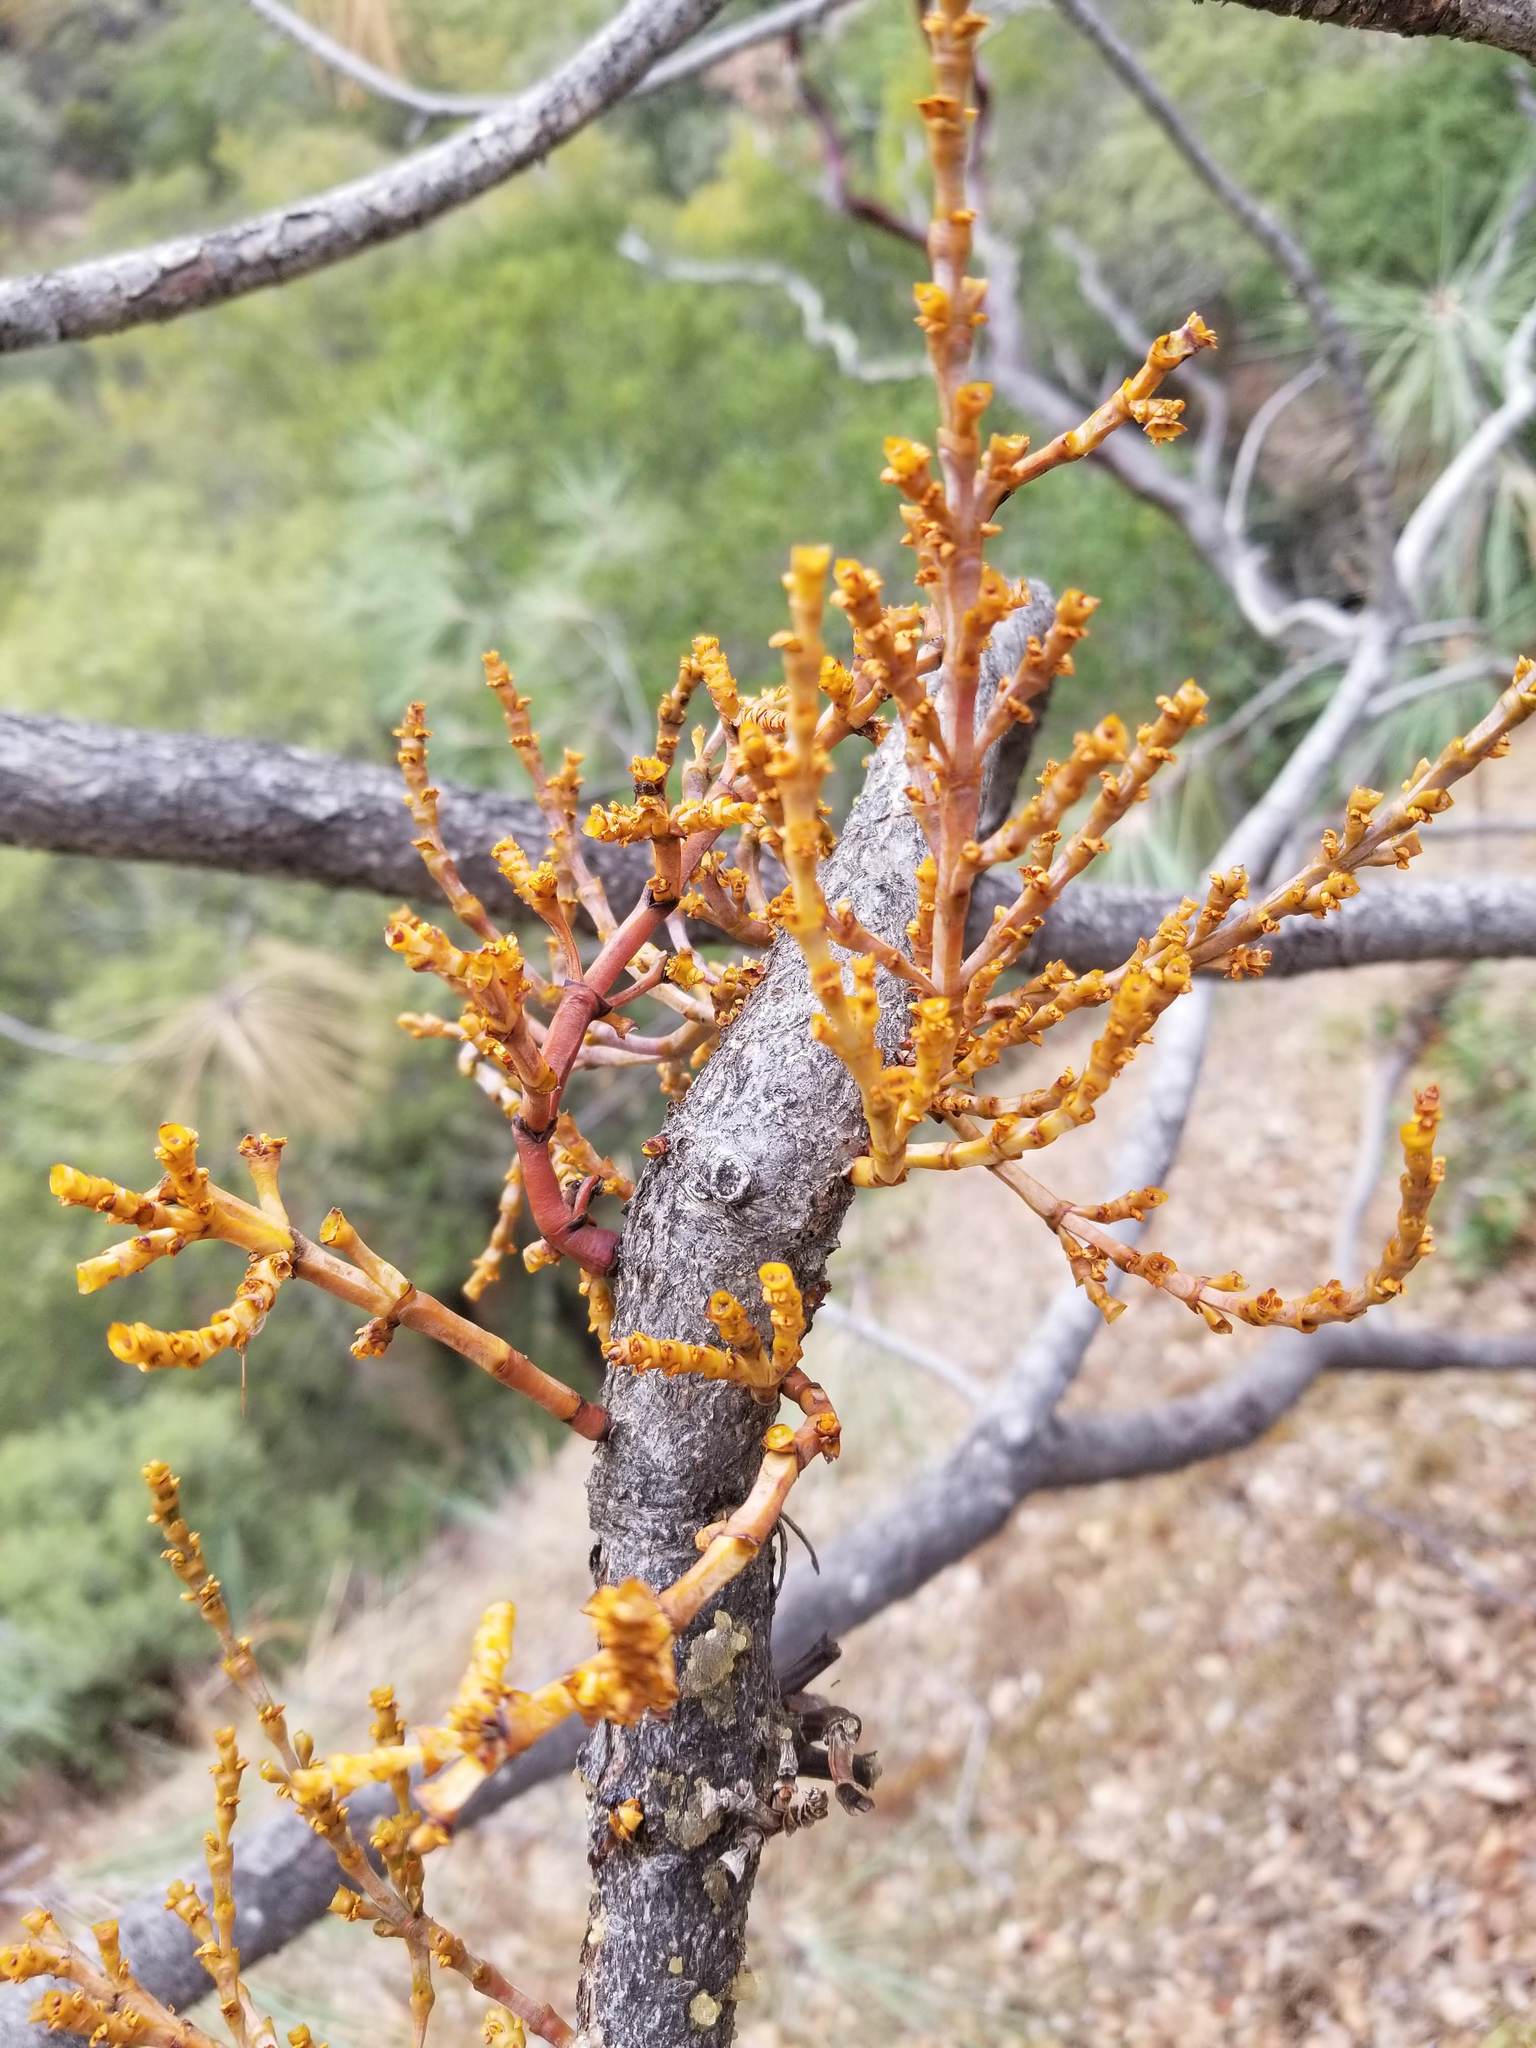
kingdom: Plantae
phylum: Tracheophyta
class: Magnoliopsida
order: Santalales
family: Viscaceae
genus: Arceuthobium
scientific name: Arceuthobium campylopodum
